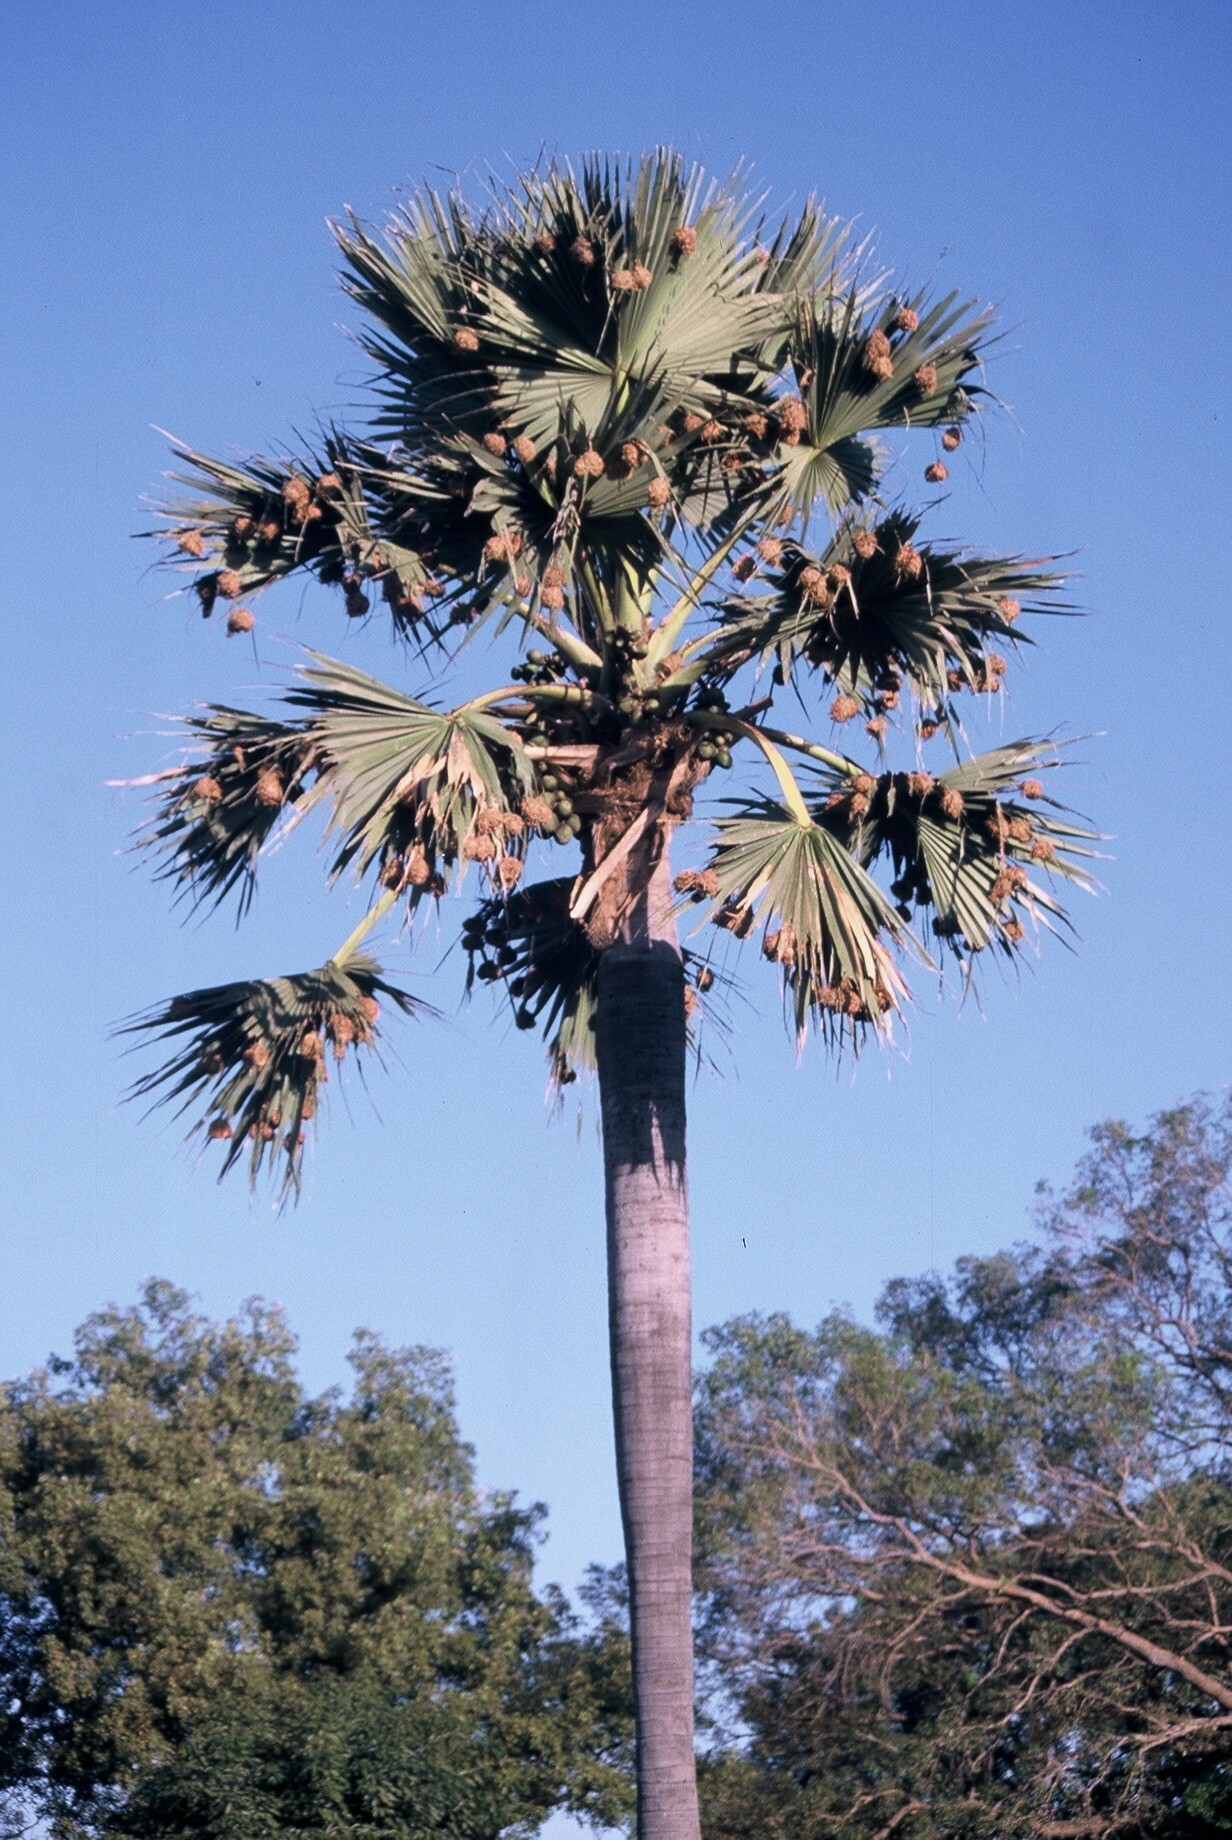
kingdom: Plantae
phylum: Tracheophyta
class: Liliopsida
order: Arecales
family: Arecaceae
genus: Borassus
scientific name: Borassus aethiopum
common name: Elephant palm
